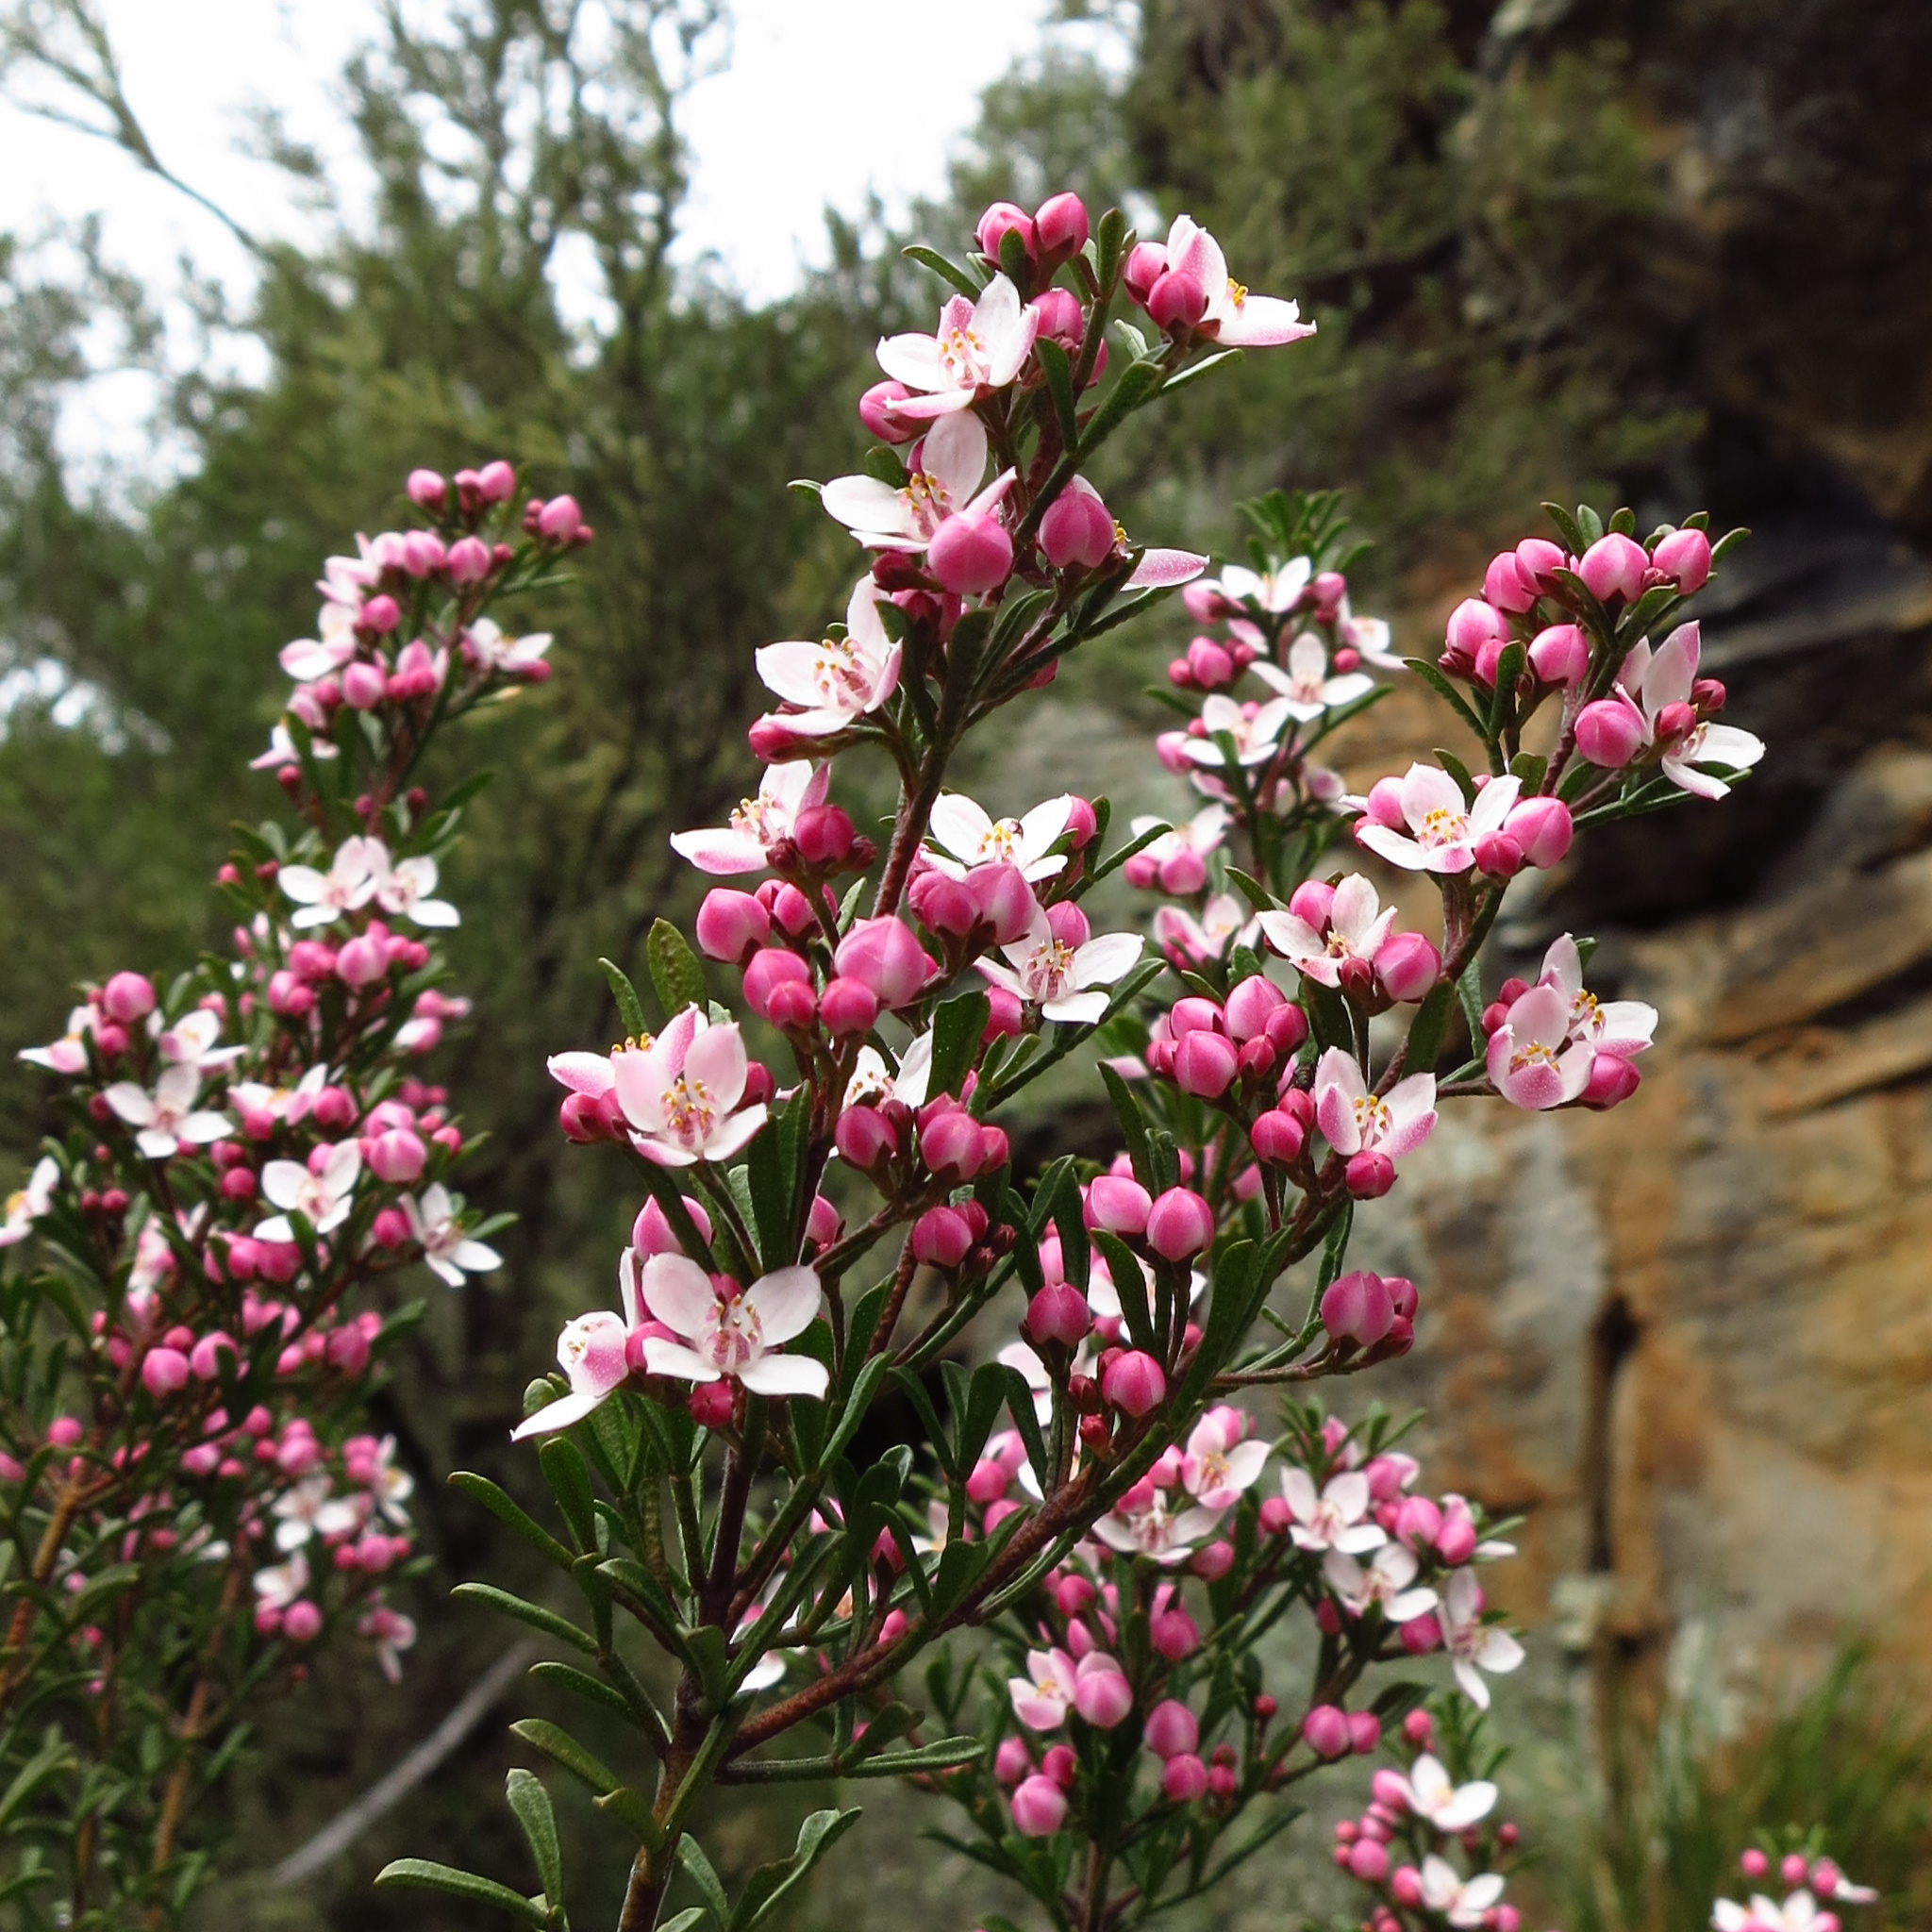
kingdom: Plantae
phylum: Tracheophyta
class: Magnoliopsida
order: Sapindales
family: Rutaceae
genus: Cyanothamnus
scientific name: Cyanothamnus anemonifolius
